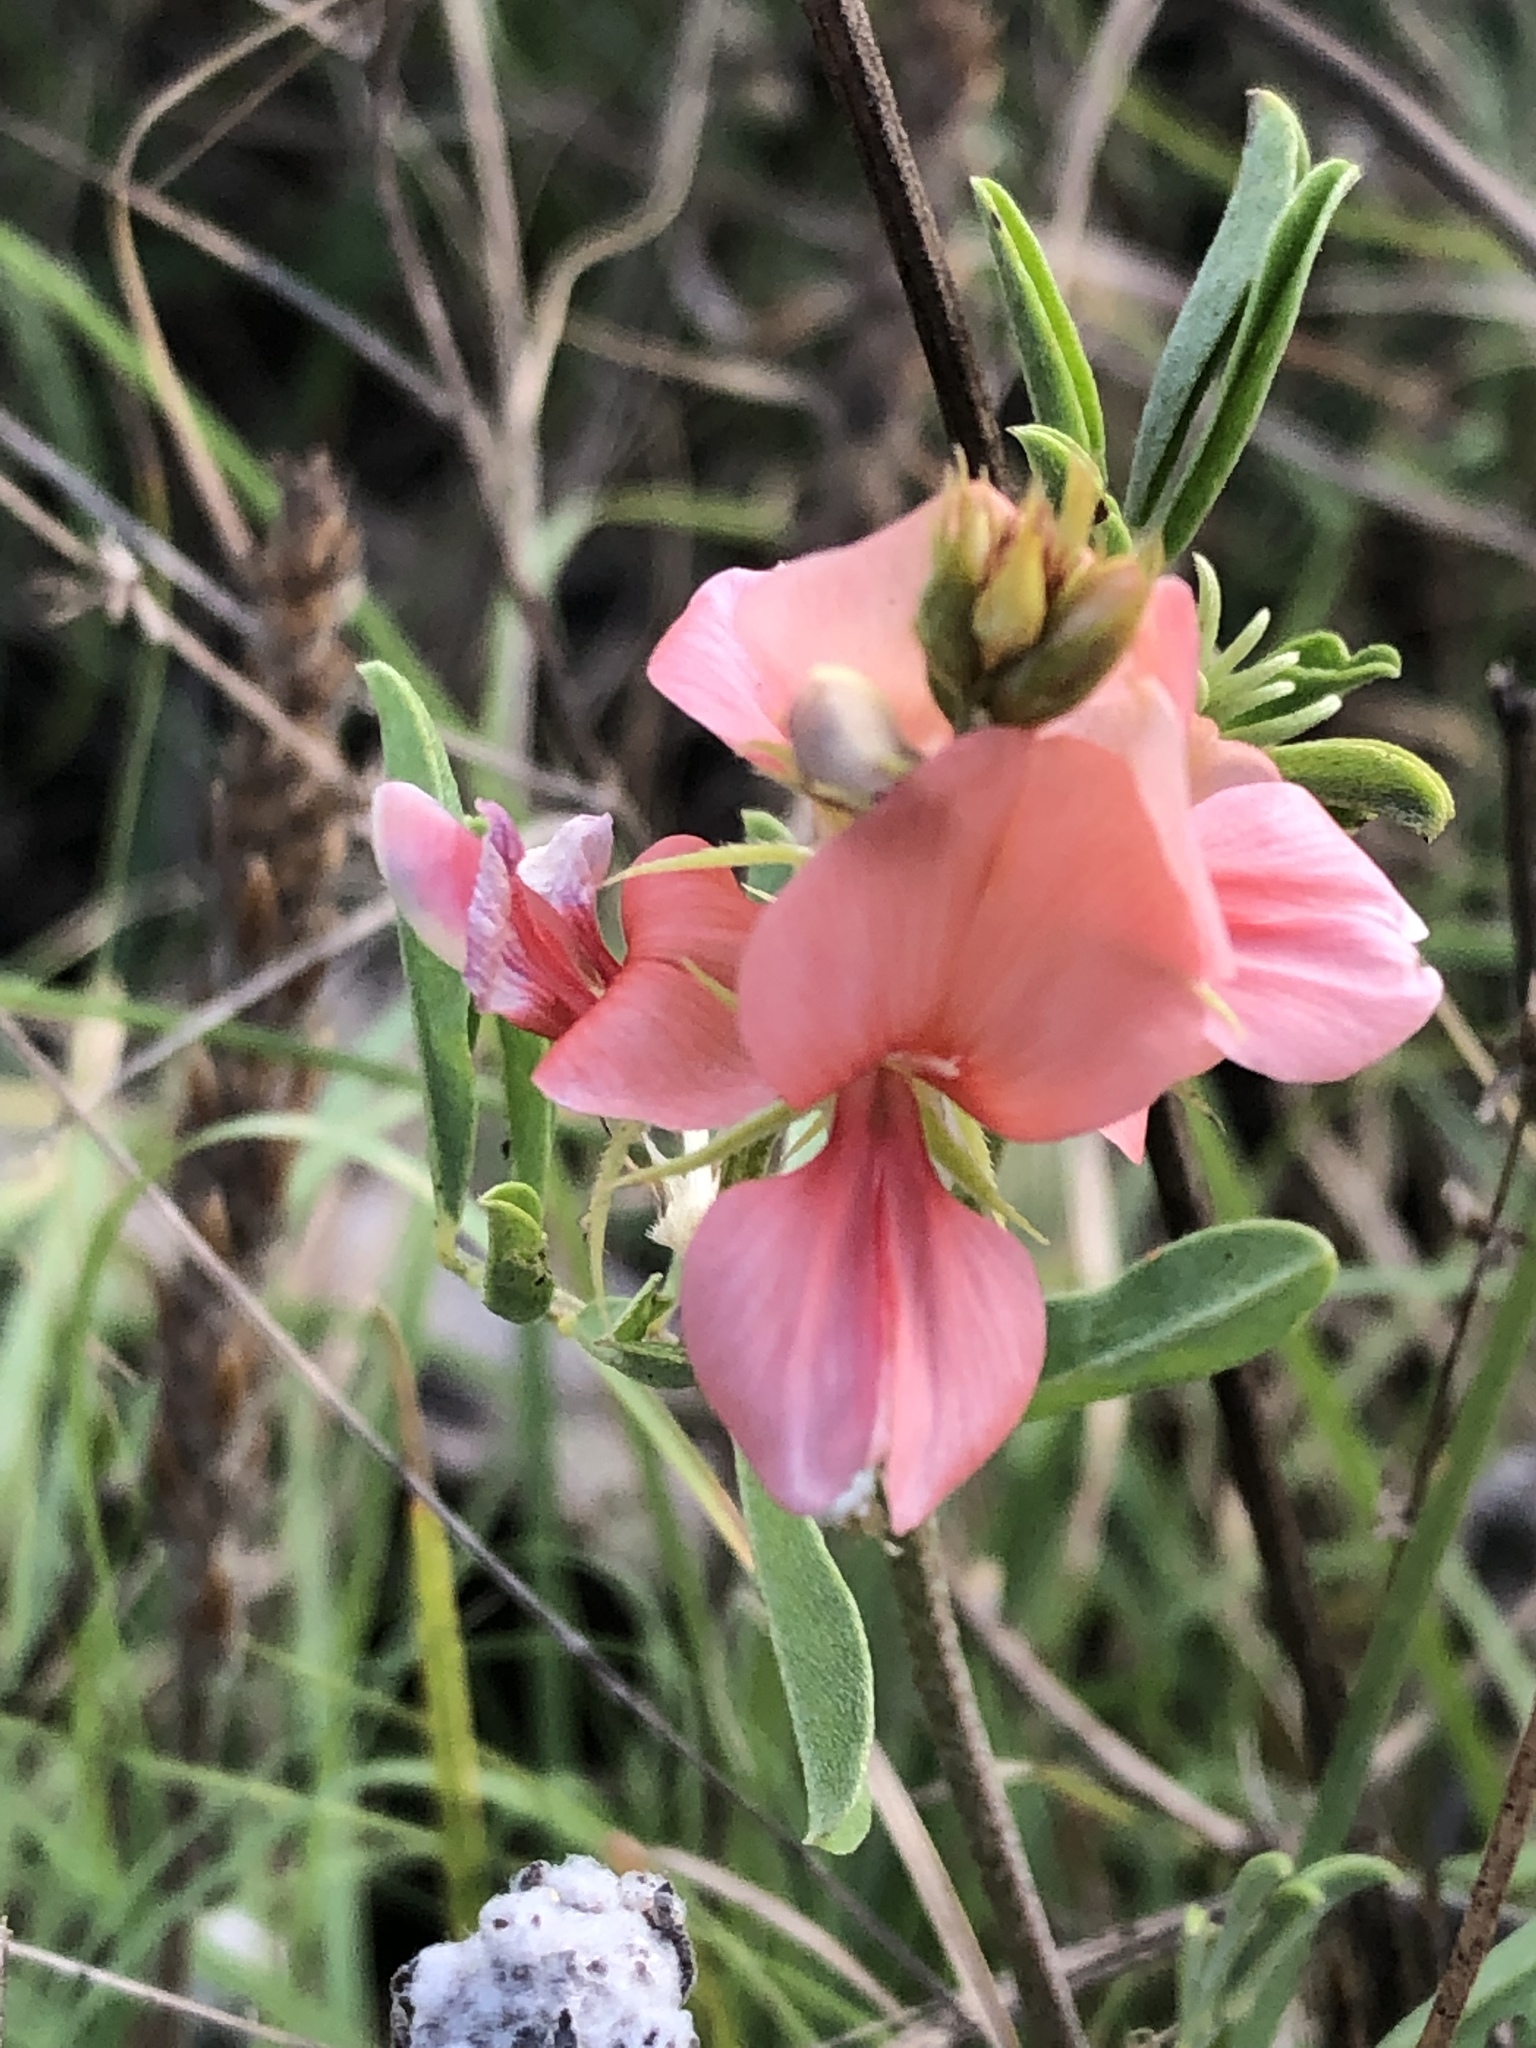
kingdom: Plantae
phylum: Tracheophyta
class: Magnoliopsida
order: Fabales
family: Fabaceae
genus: Indigofera
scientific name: Indigofera miniata
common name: Coast indigo
